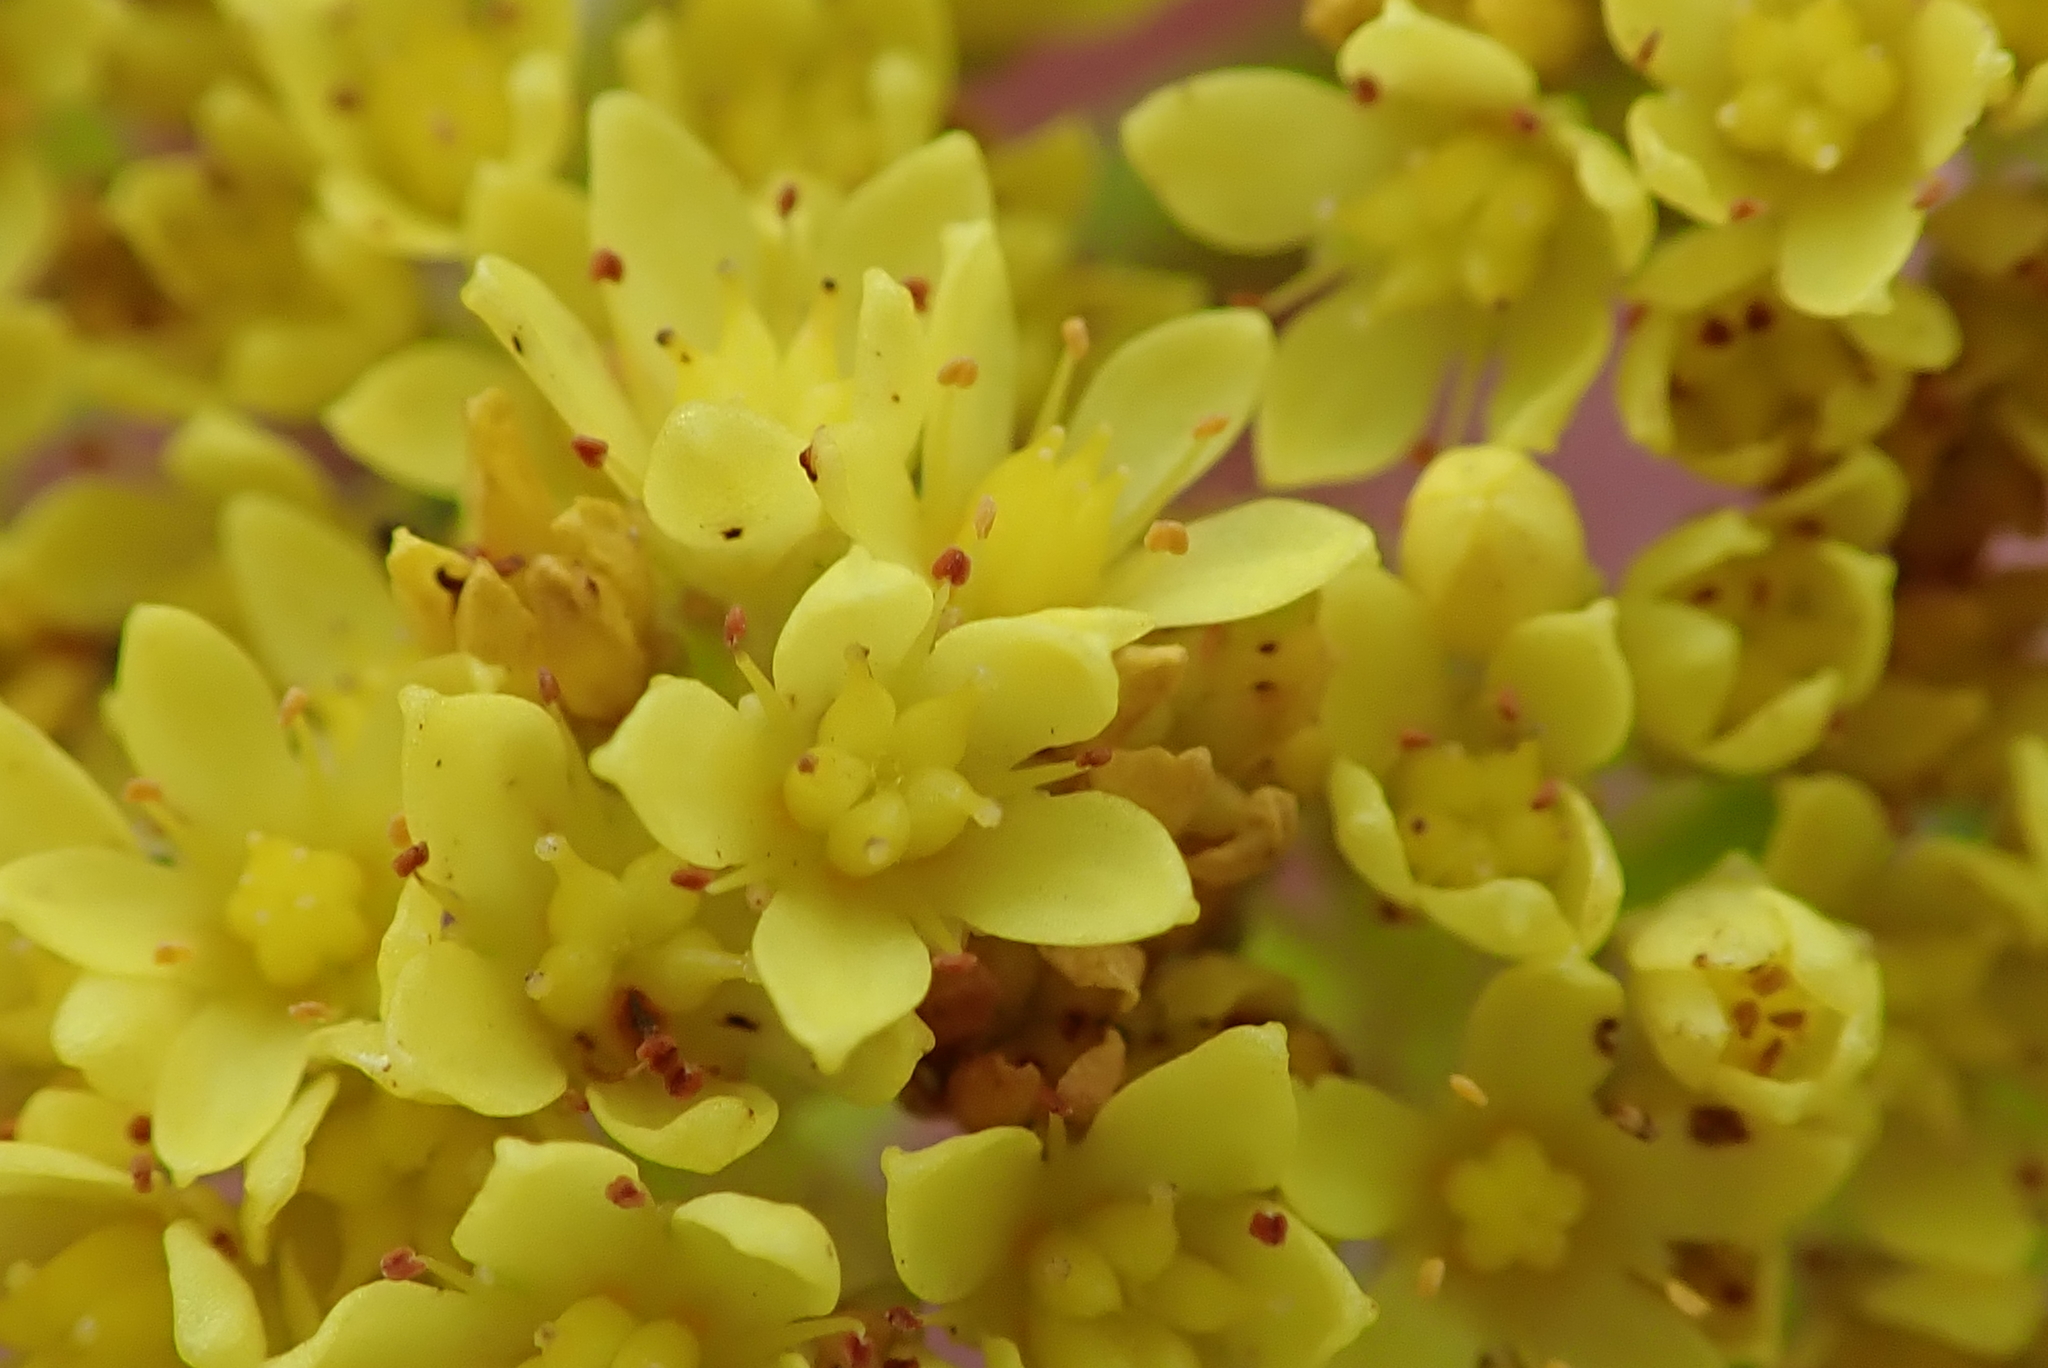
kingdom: Plantae
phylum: Tracheophyta
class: Magnoliopsida
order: Saxifragales
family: Crassulaceae
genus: Crassula
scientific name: Crassula vaginata
